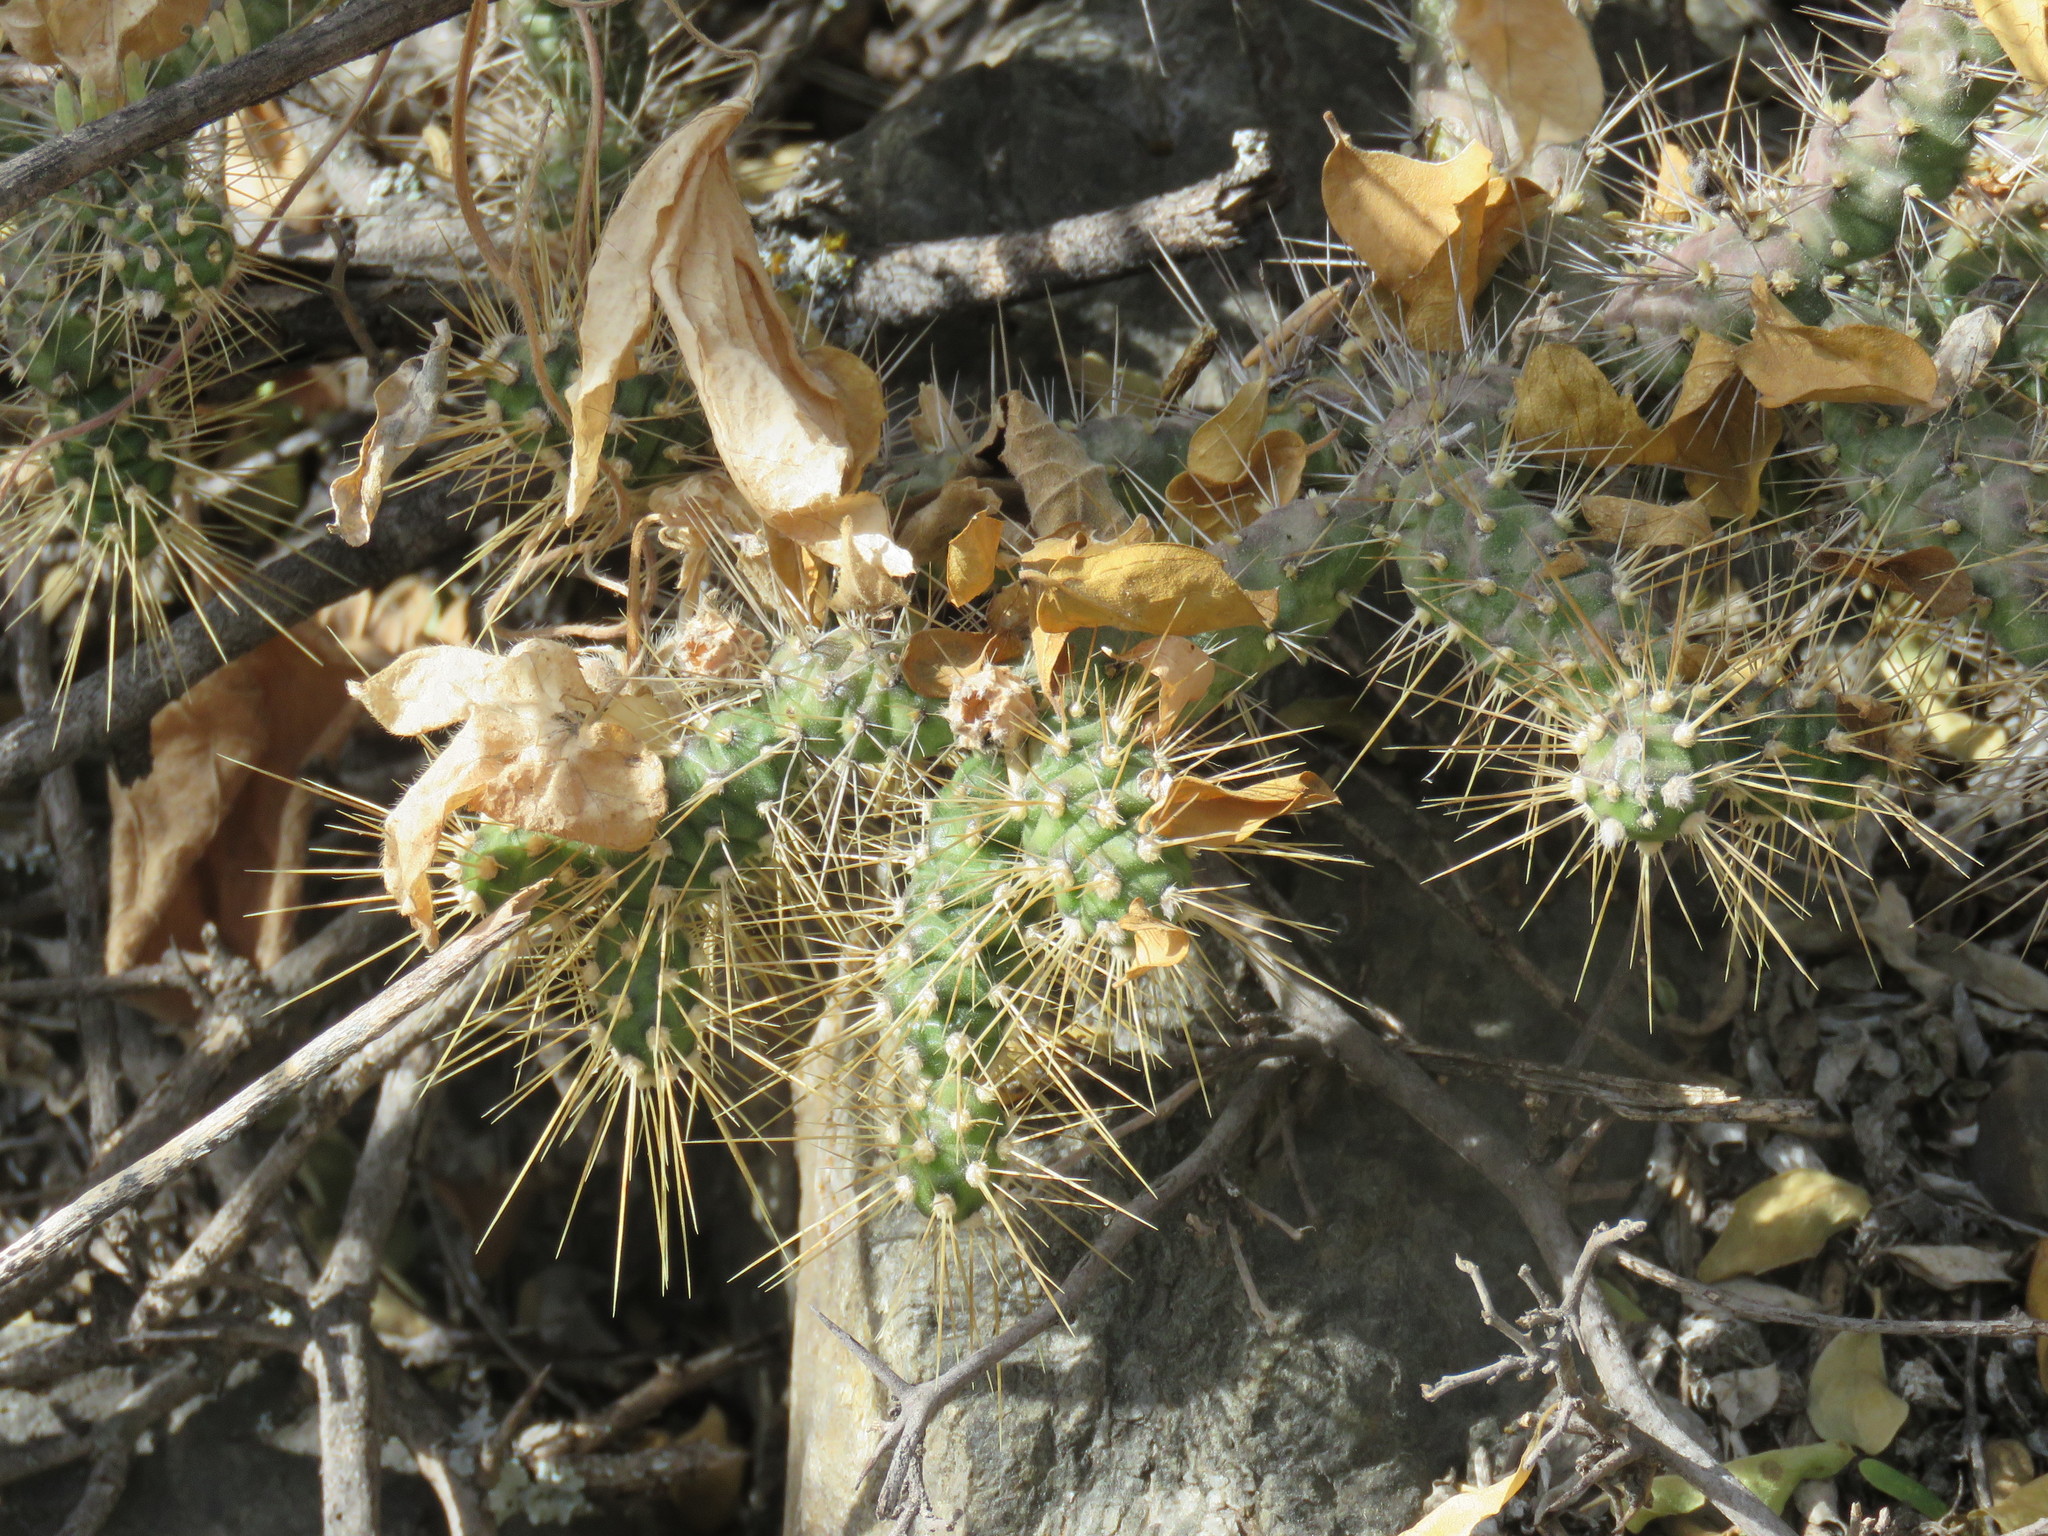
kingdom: Plantae
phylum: Tracheophyta
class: Magnoliopsida
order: Caryophyllales
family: Cactaceae
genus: Opuntia
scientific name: Opuntia pubescens
